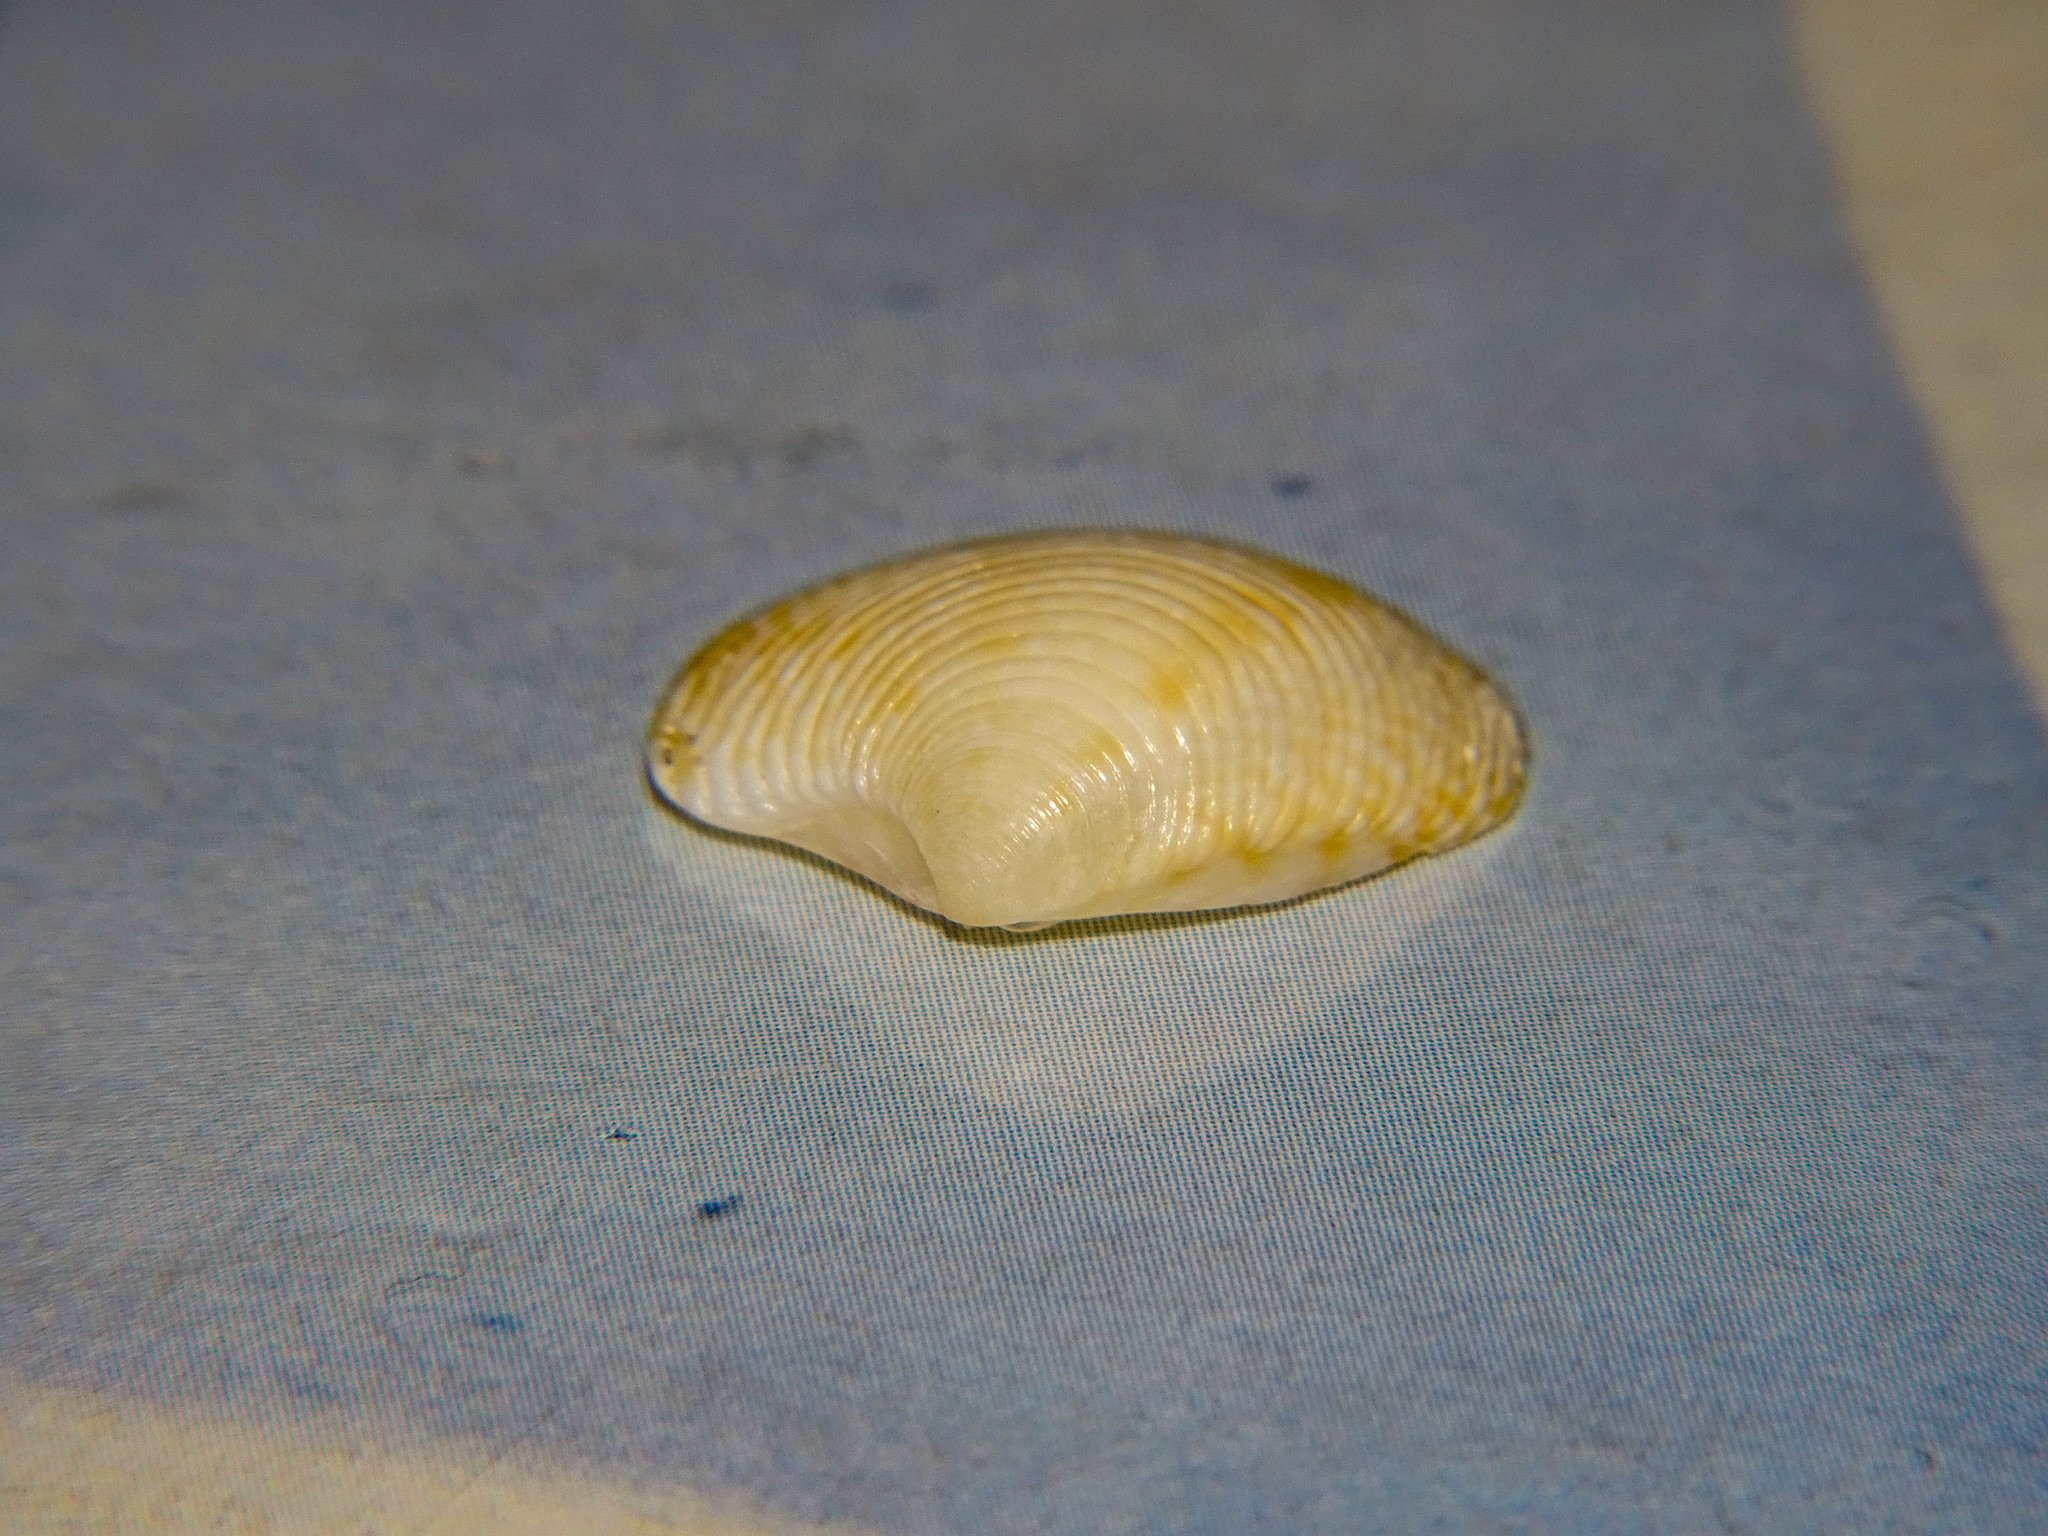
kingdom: Animalia
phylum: Mollusca
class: Bivalvia
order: Venerida
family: Veneridae
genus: Chamelea
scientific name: Chamelea gallina
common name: Chicken venus
